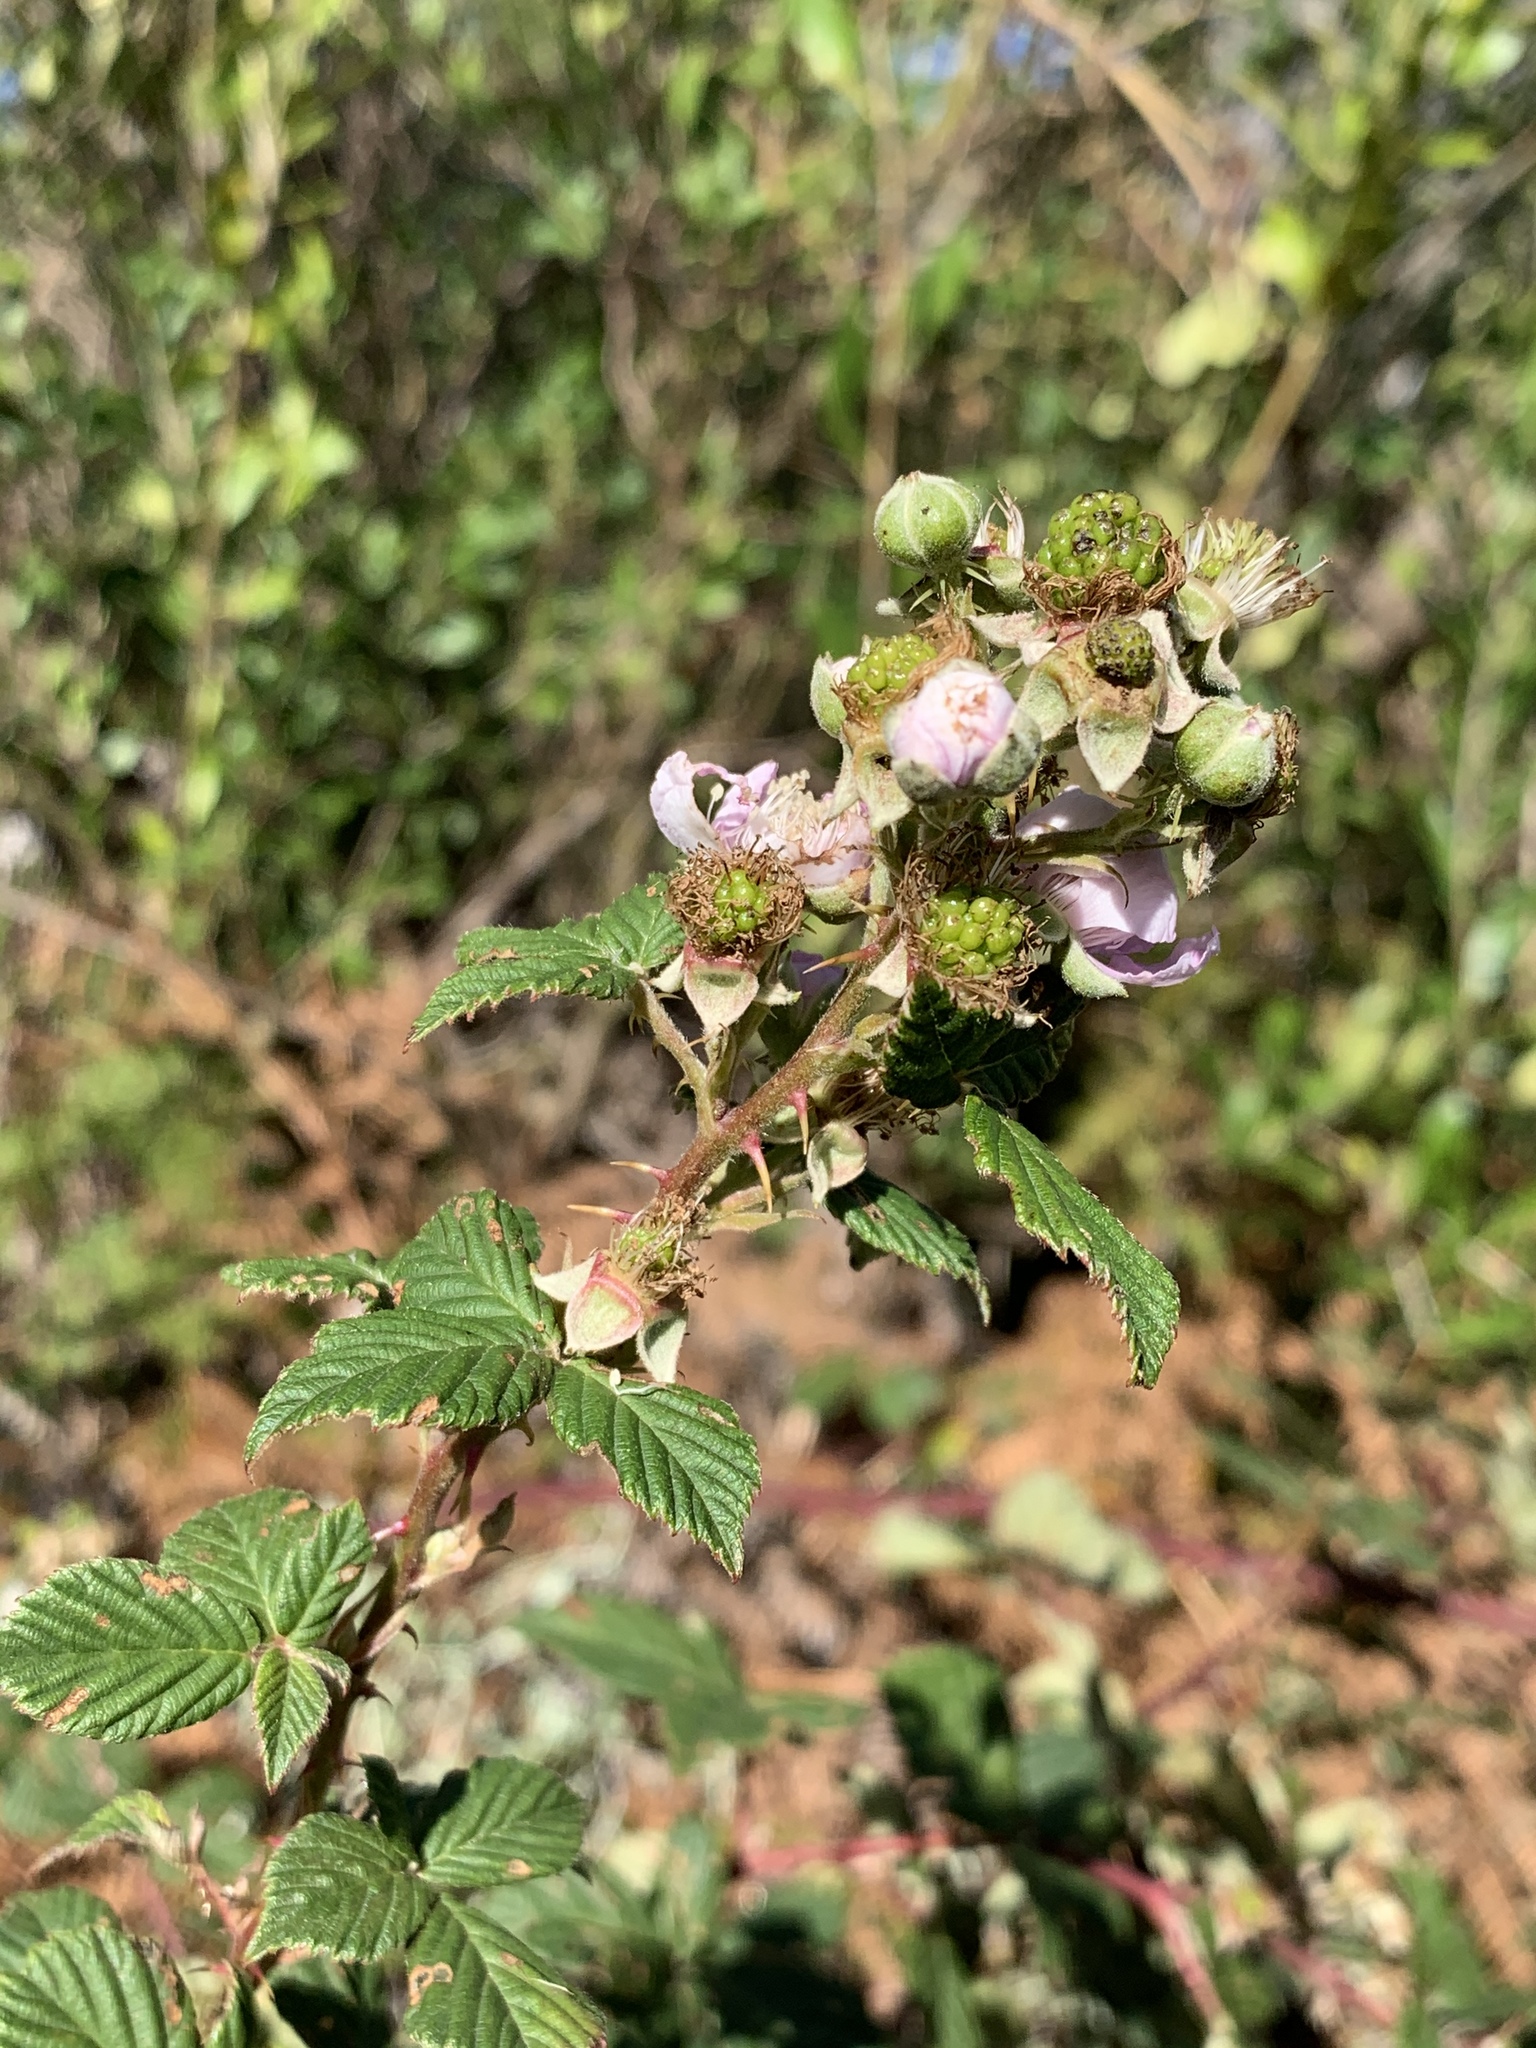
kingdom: Plantae
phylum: Tracheophyta
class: Magnoliopsida
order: Rosales
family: Rosaceae
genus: Rubus
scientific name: Rubus
